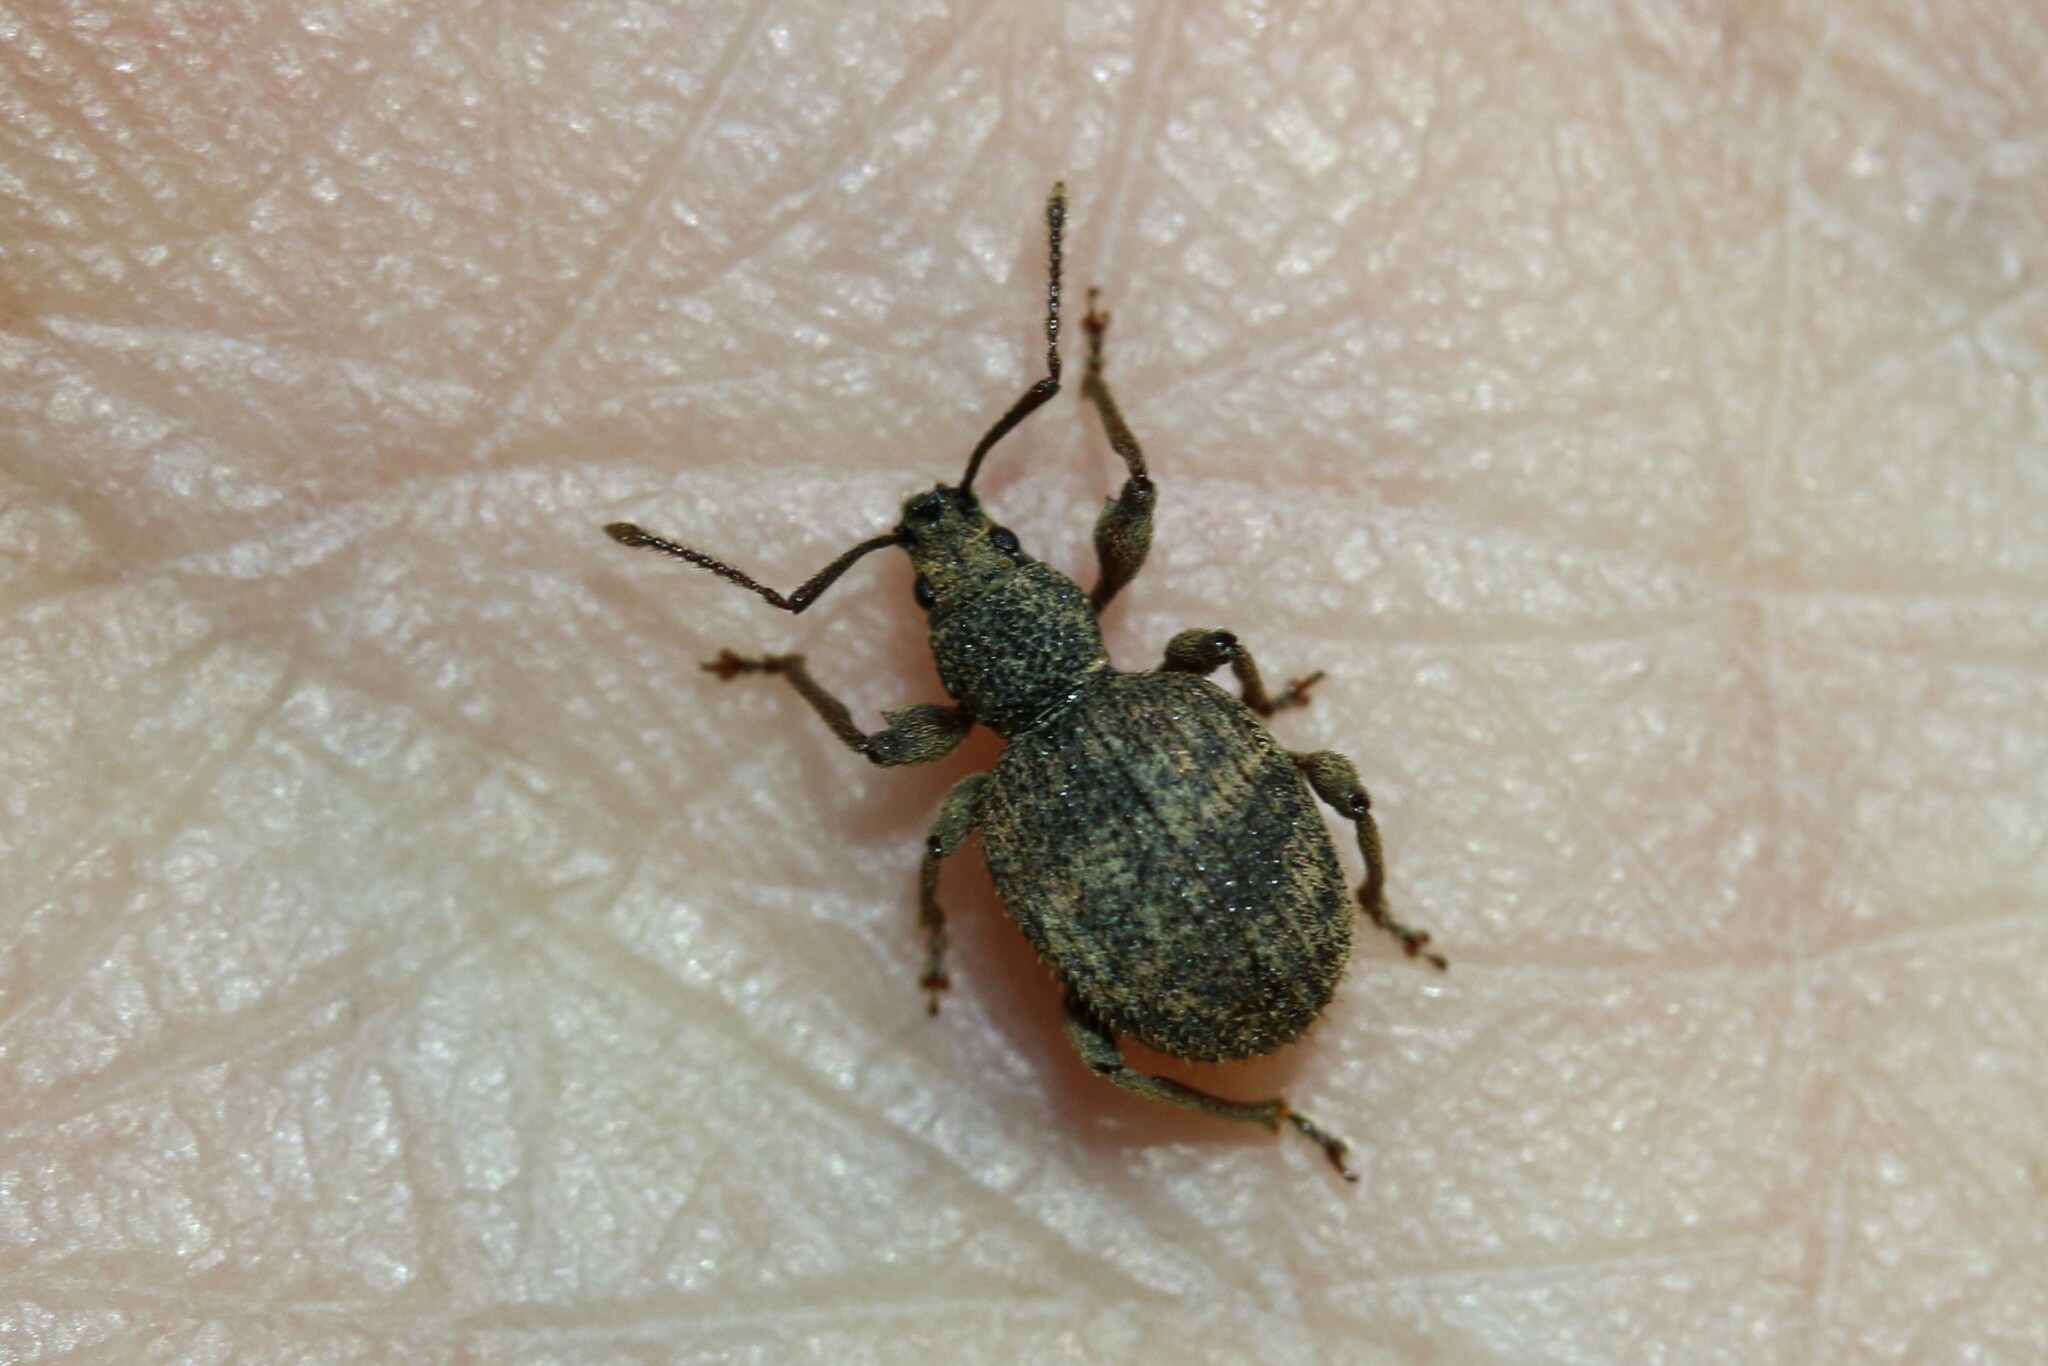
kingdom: Animalia
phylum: Arthropoda
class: Insecta
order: Coleoptera
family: Curculionidae
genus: Otiorhynchus
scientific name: Otiorhynchus crataegi
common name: Privet weevil
